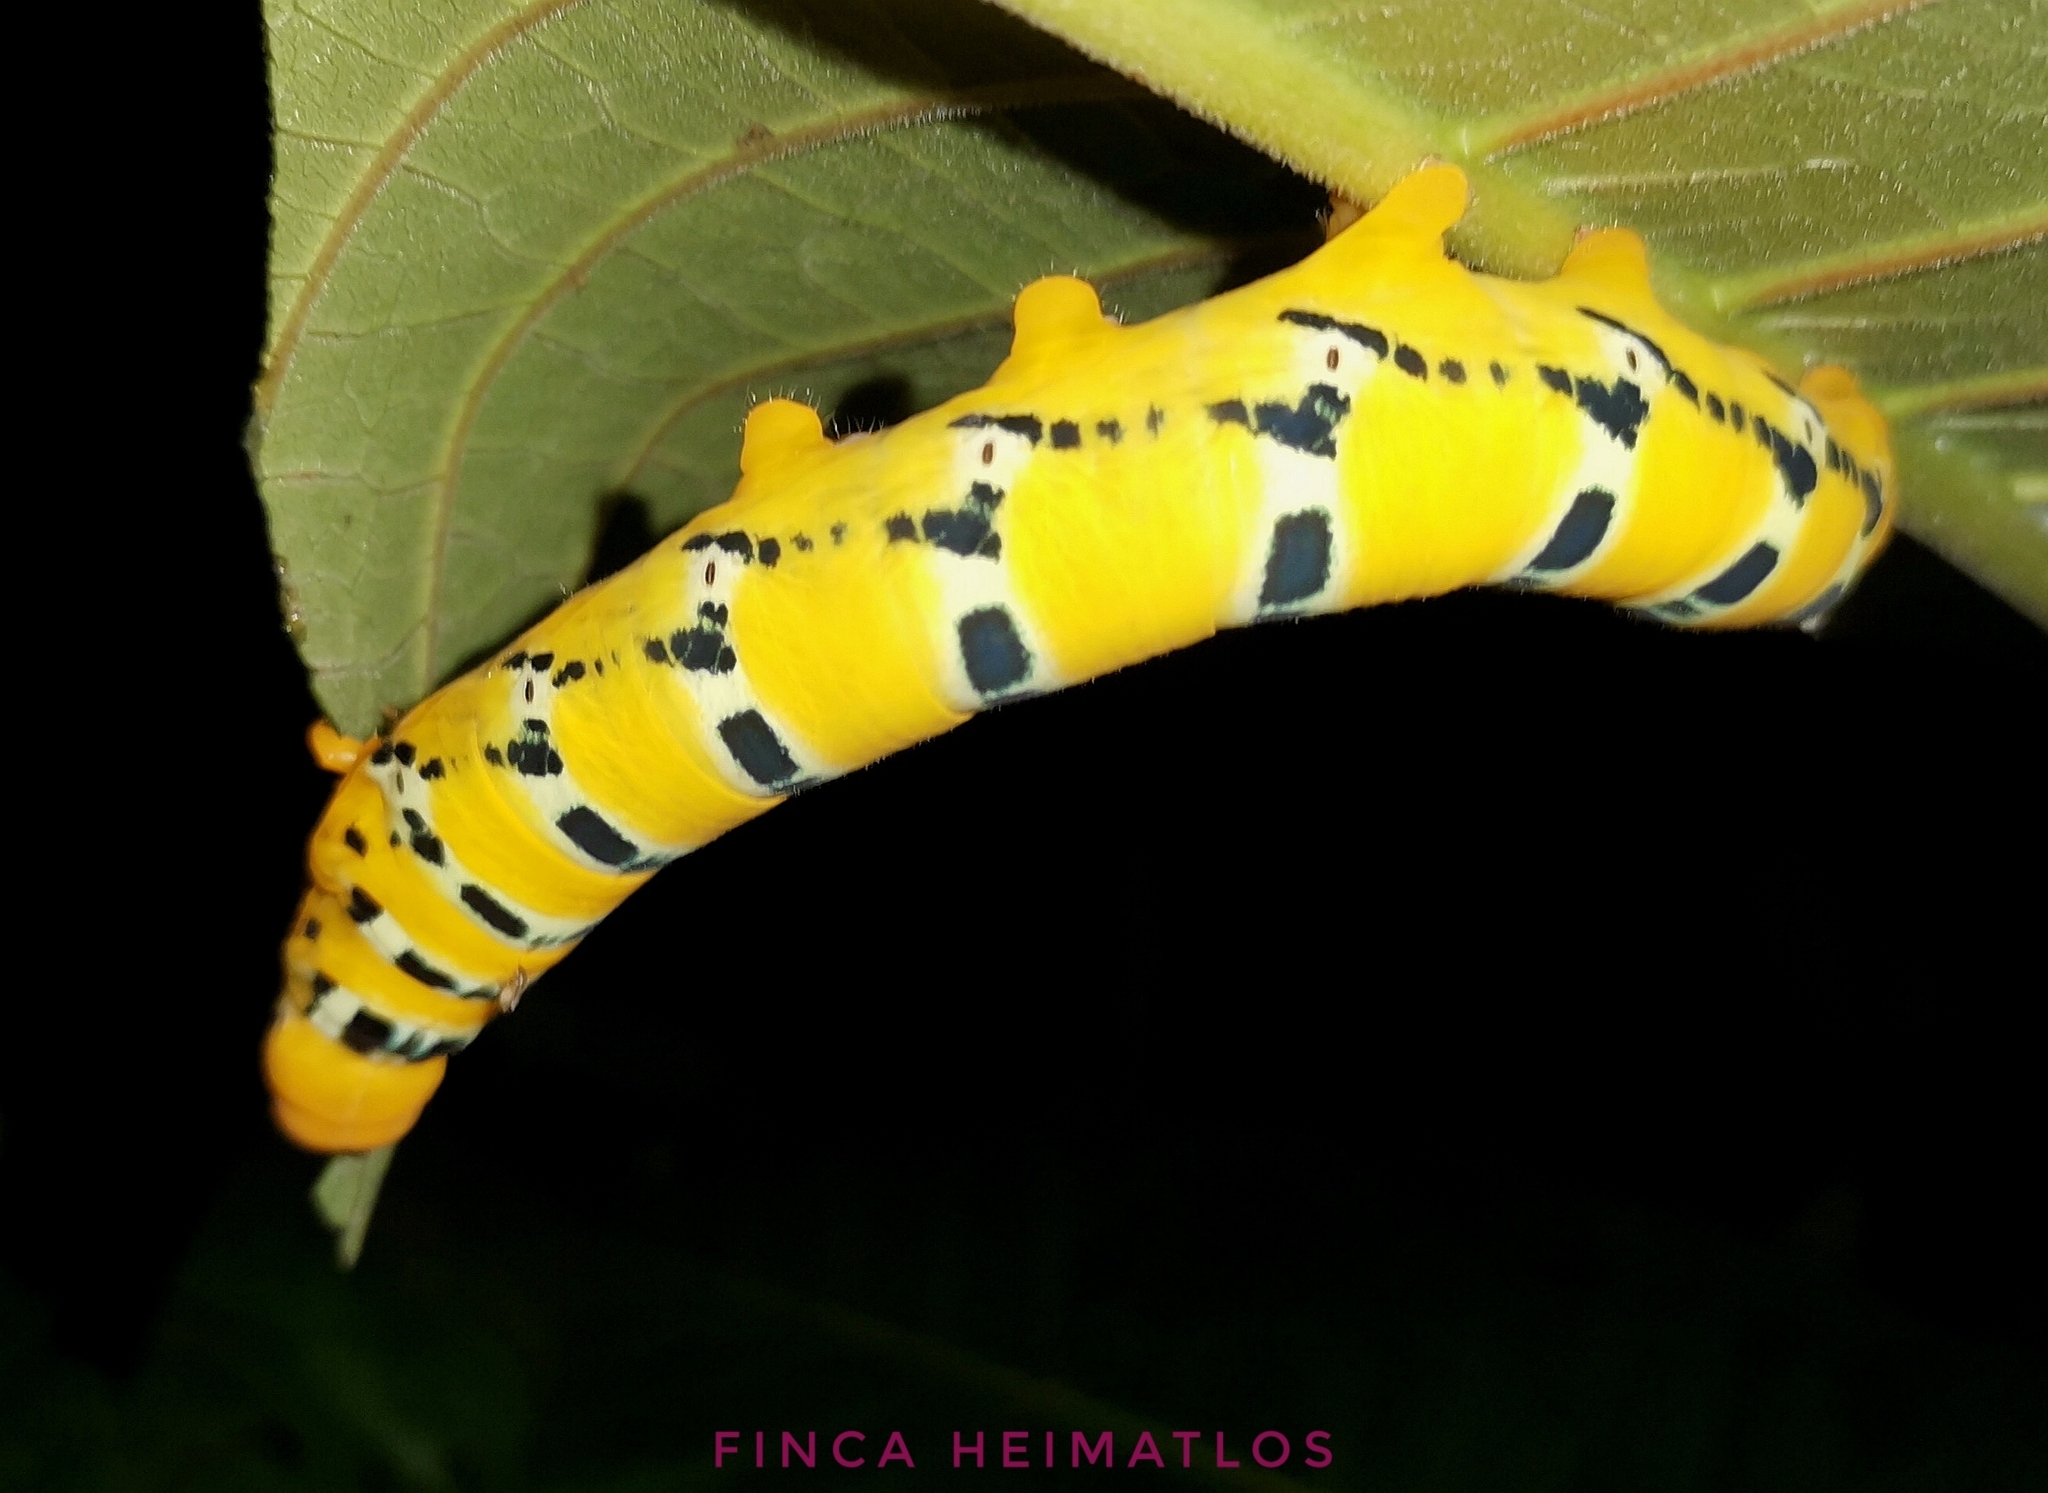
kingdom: Animalia
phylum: Arthropoda
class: Insecta
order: Lepidoptera
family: Sphingidae
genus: Oryba
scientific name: Oryba kadeni
